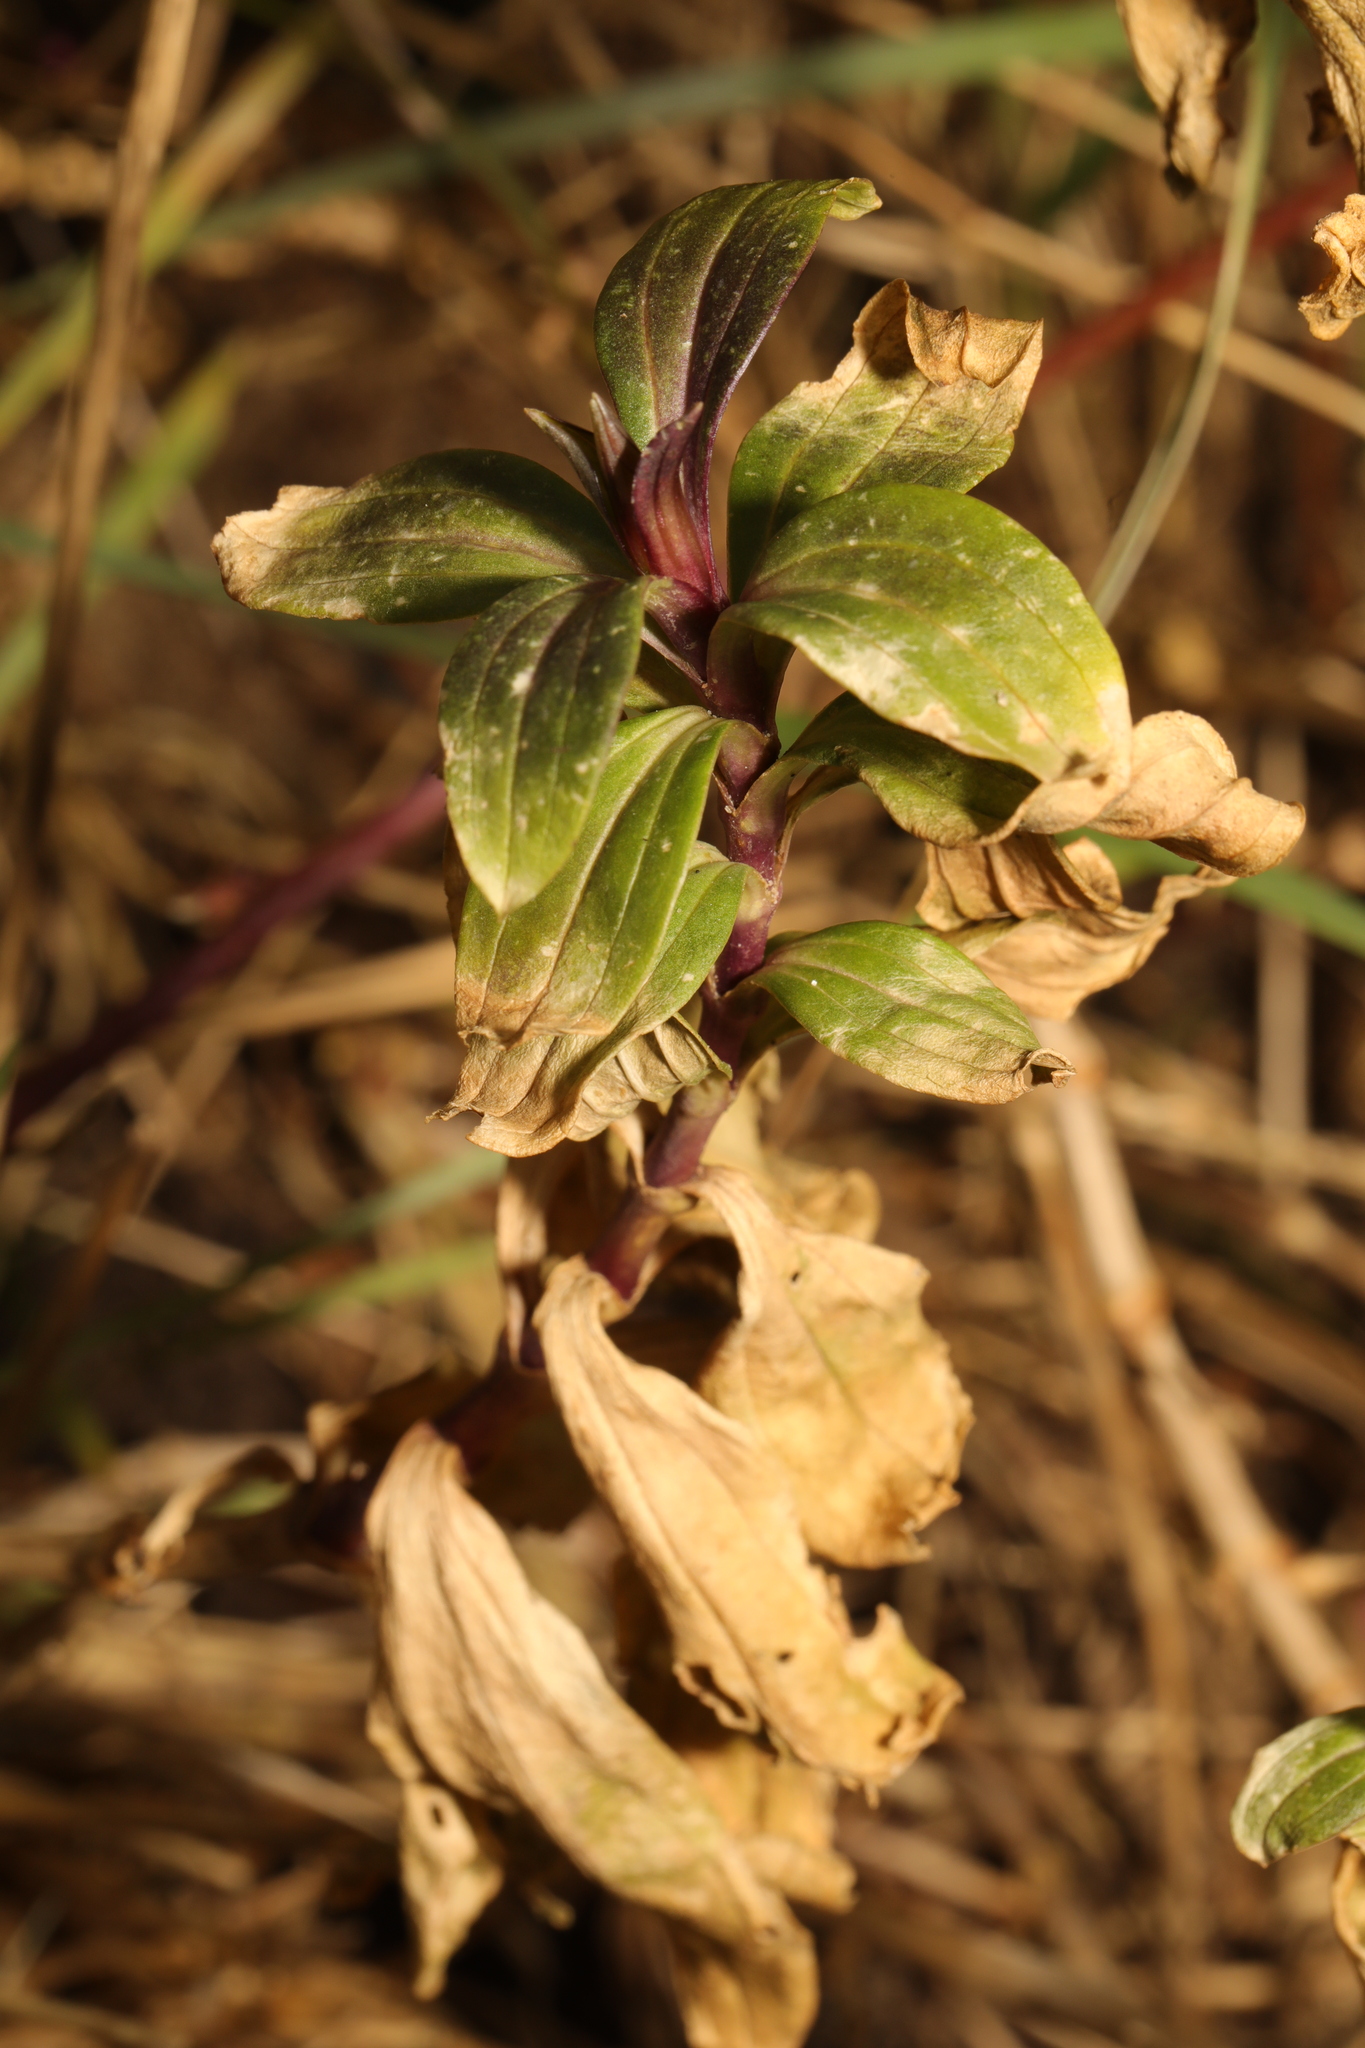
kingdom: Plantae
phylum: Tracheophyta
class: Magnoliopsida
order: Caryophyllales
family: Caryophyllaceae
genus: Saponaria
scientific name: Saponaria officinalis
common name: Soapwort
